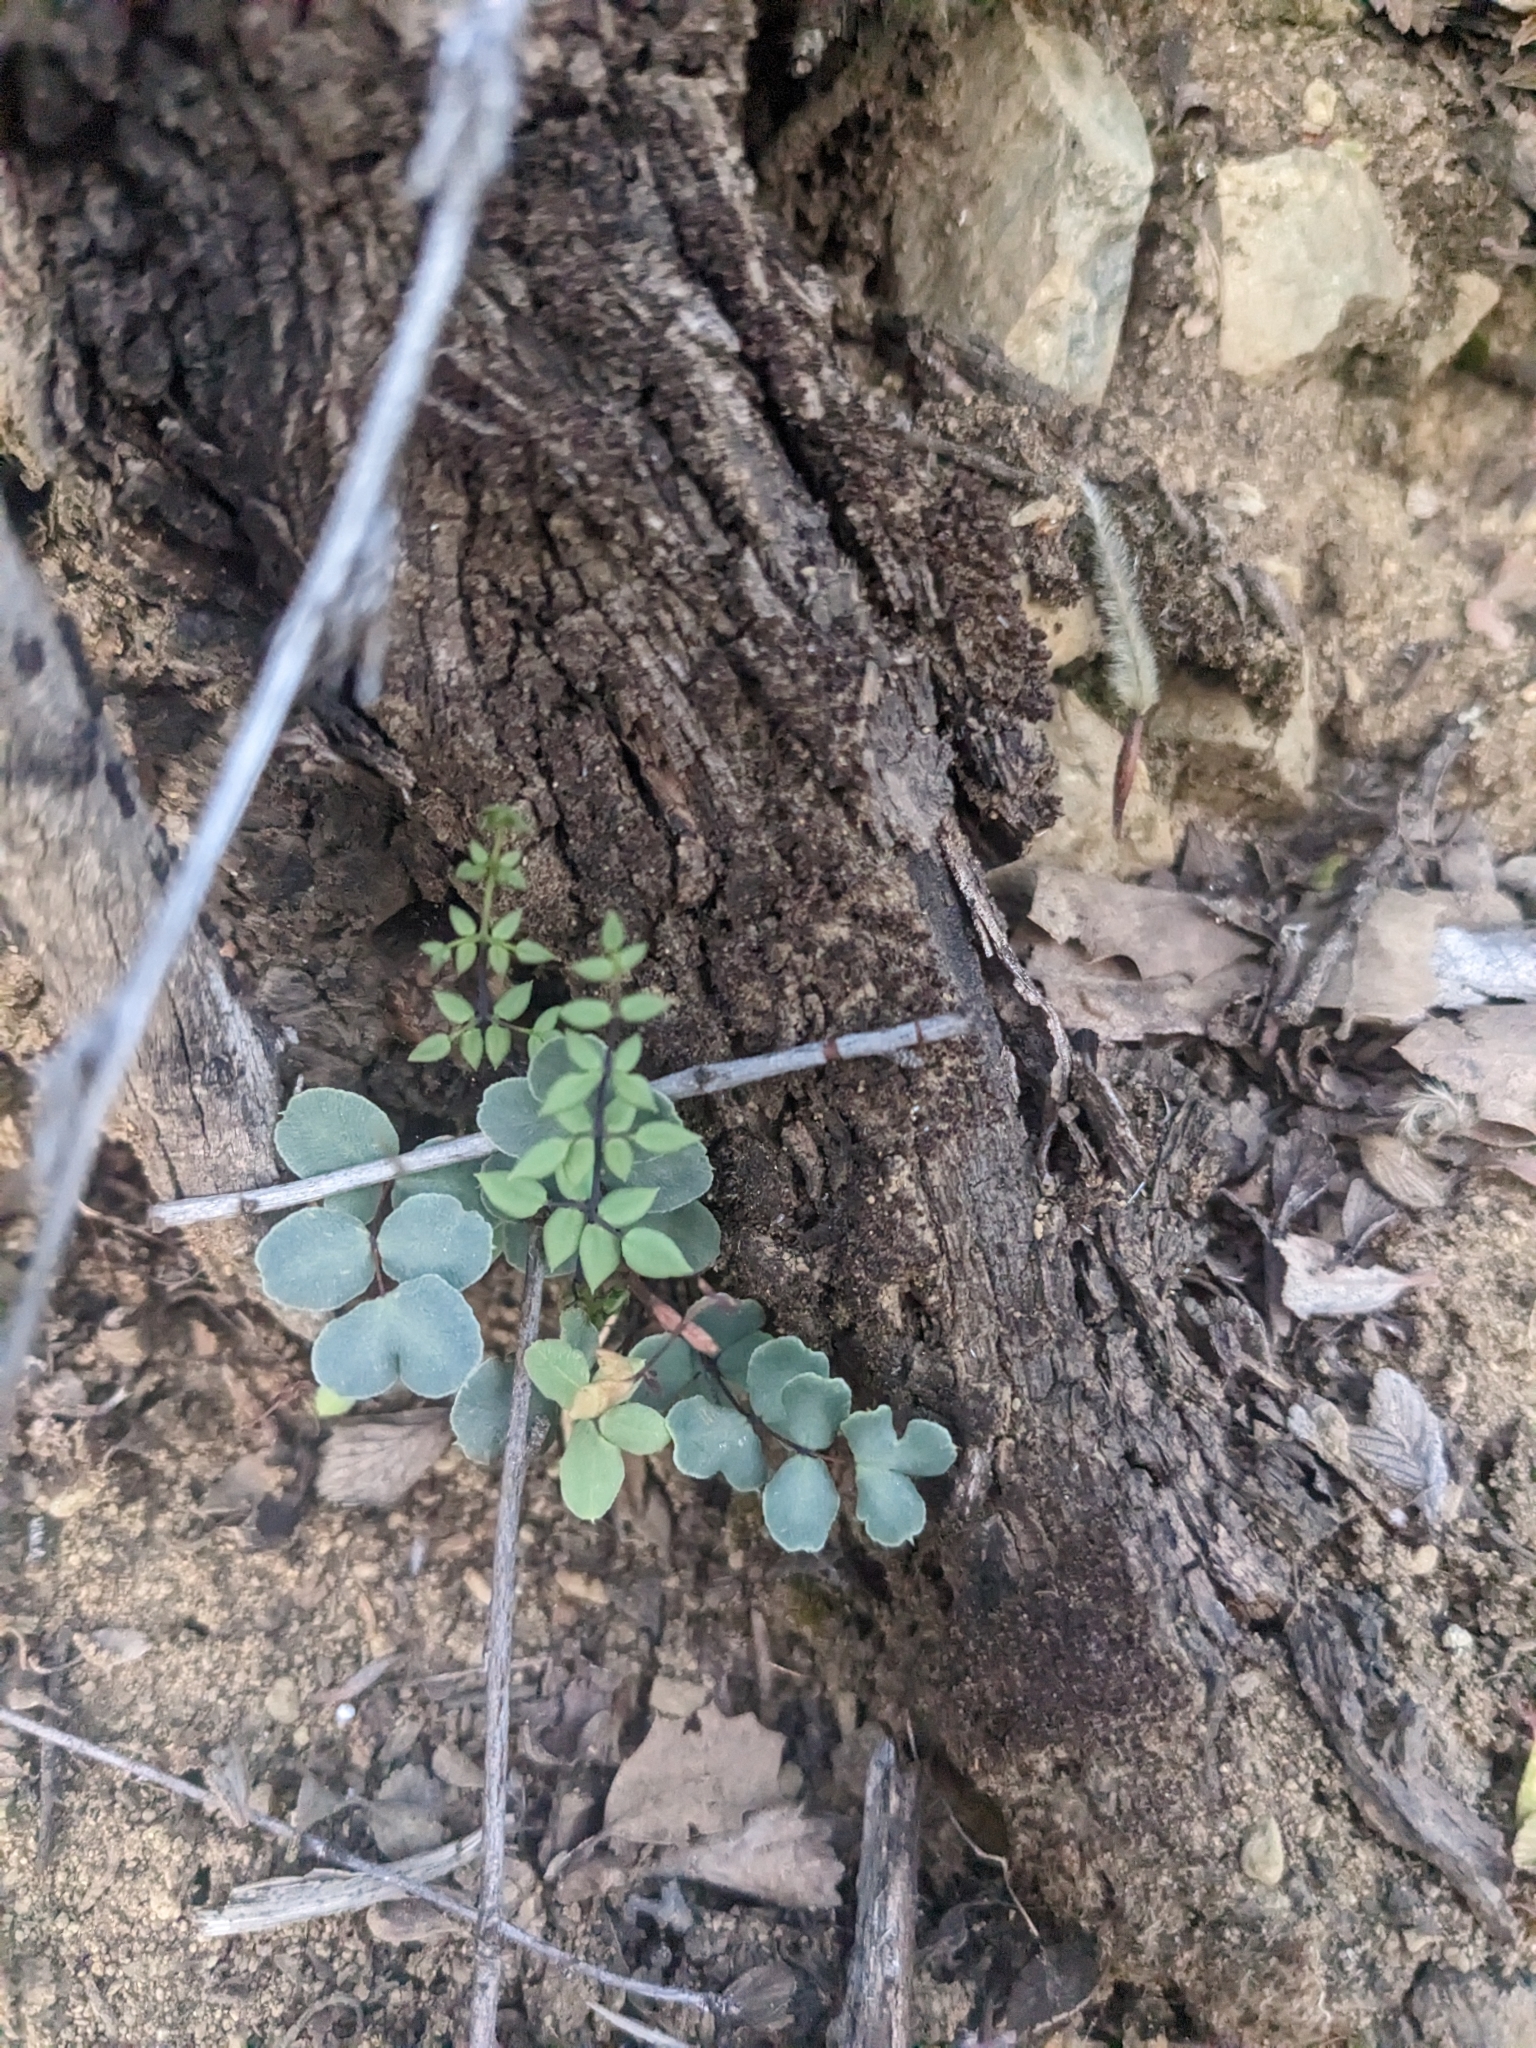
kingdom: Plantae
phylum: Tracheophyta
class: Polypodiopsida
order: Polypodiales
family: Pteridaceae
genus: Pellaea
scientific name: Pellaea truncata
